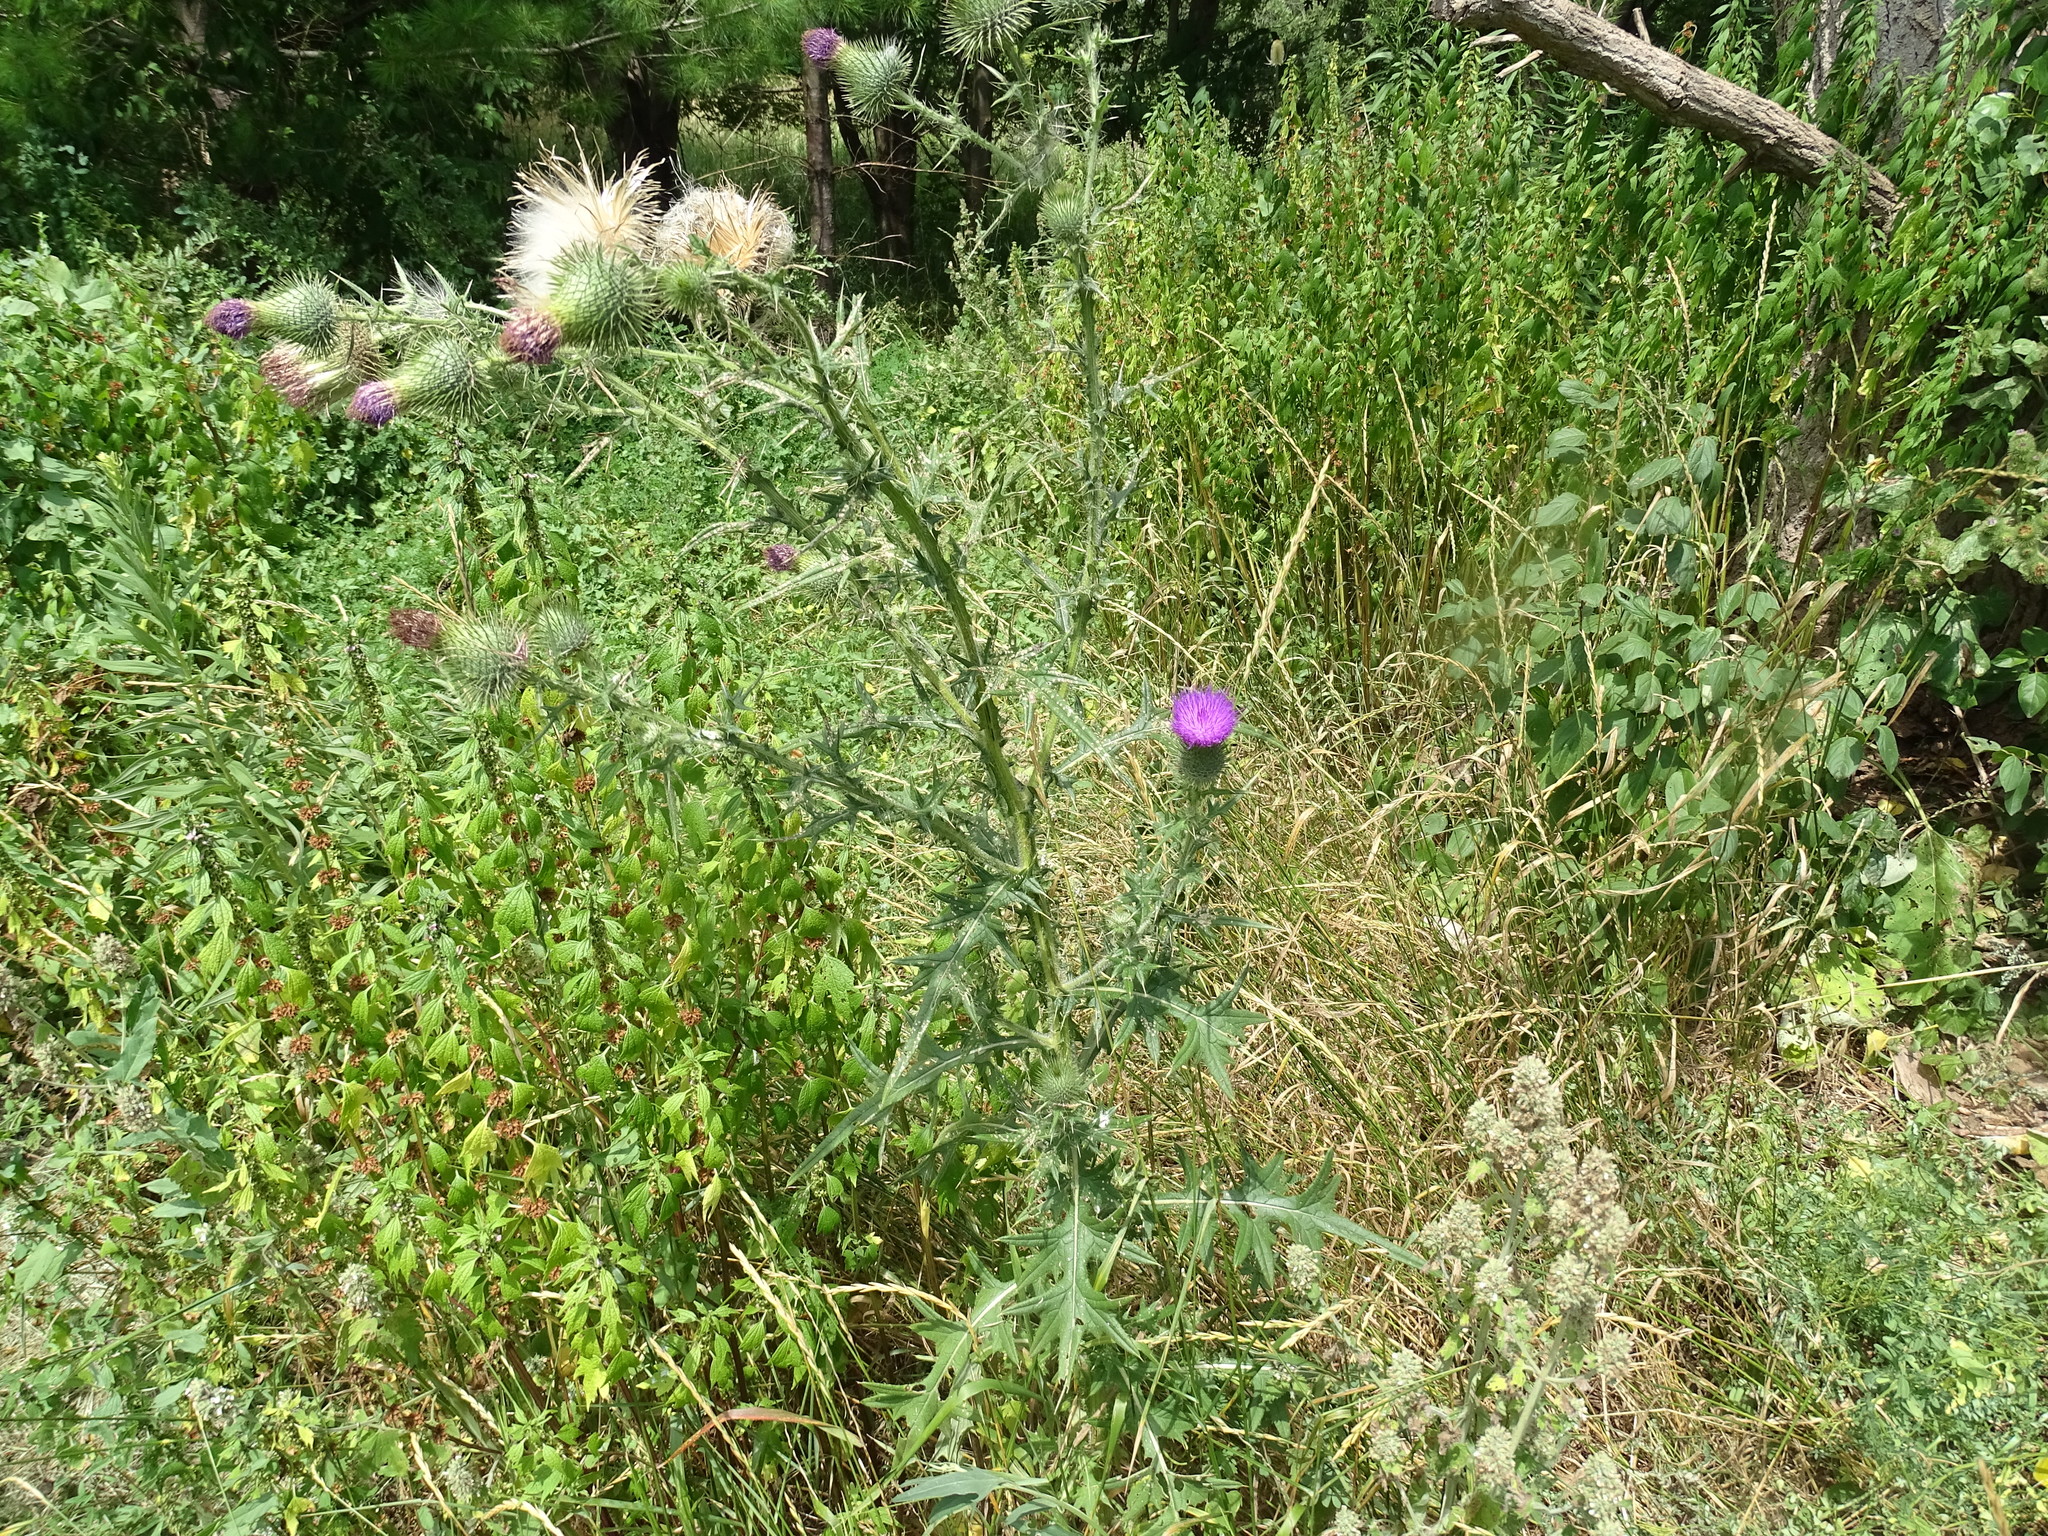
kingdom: Plantae
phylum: Tracheophyta
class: Magnoliopsida
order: Asterales
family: Asteraceae
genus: Cirsium
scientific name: Cirsium vulgare
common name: Bull thistle
